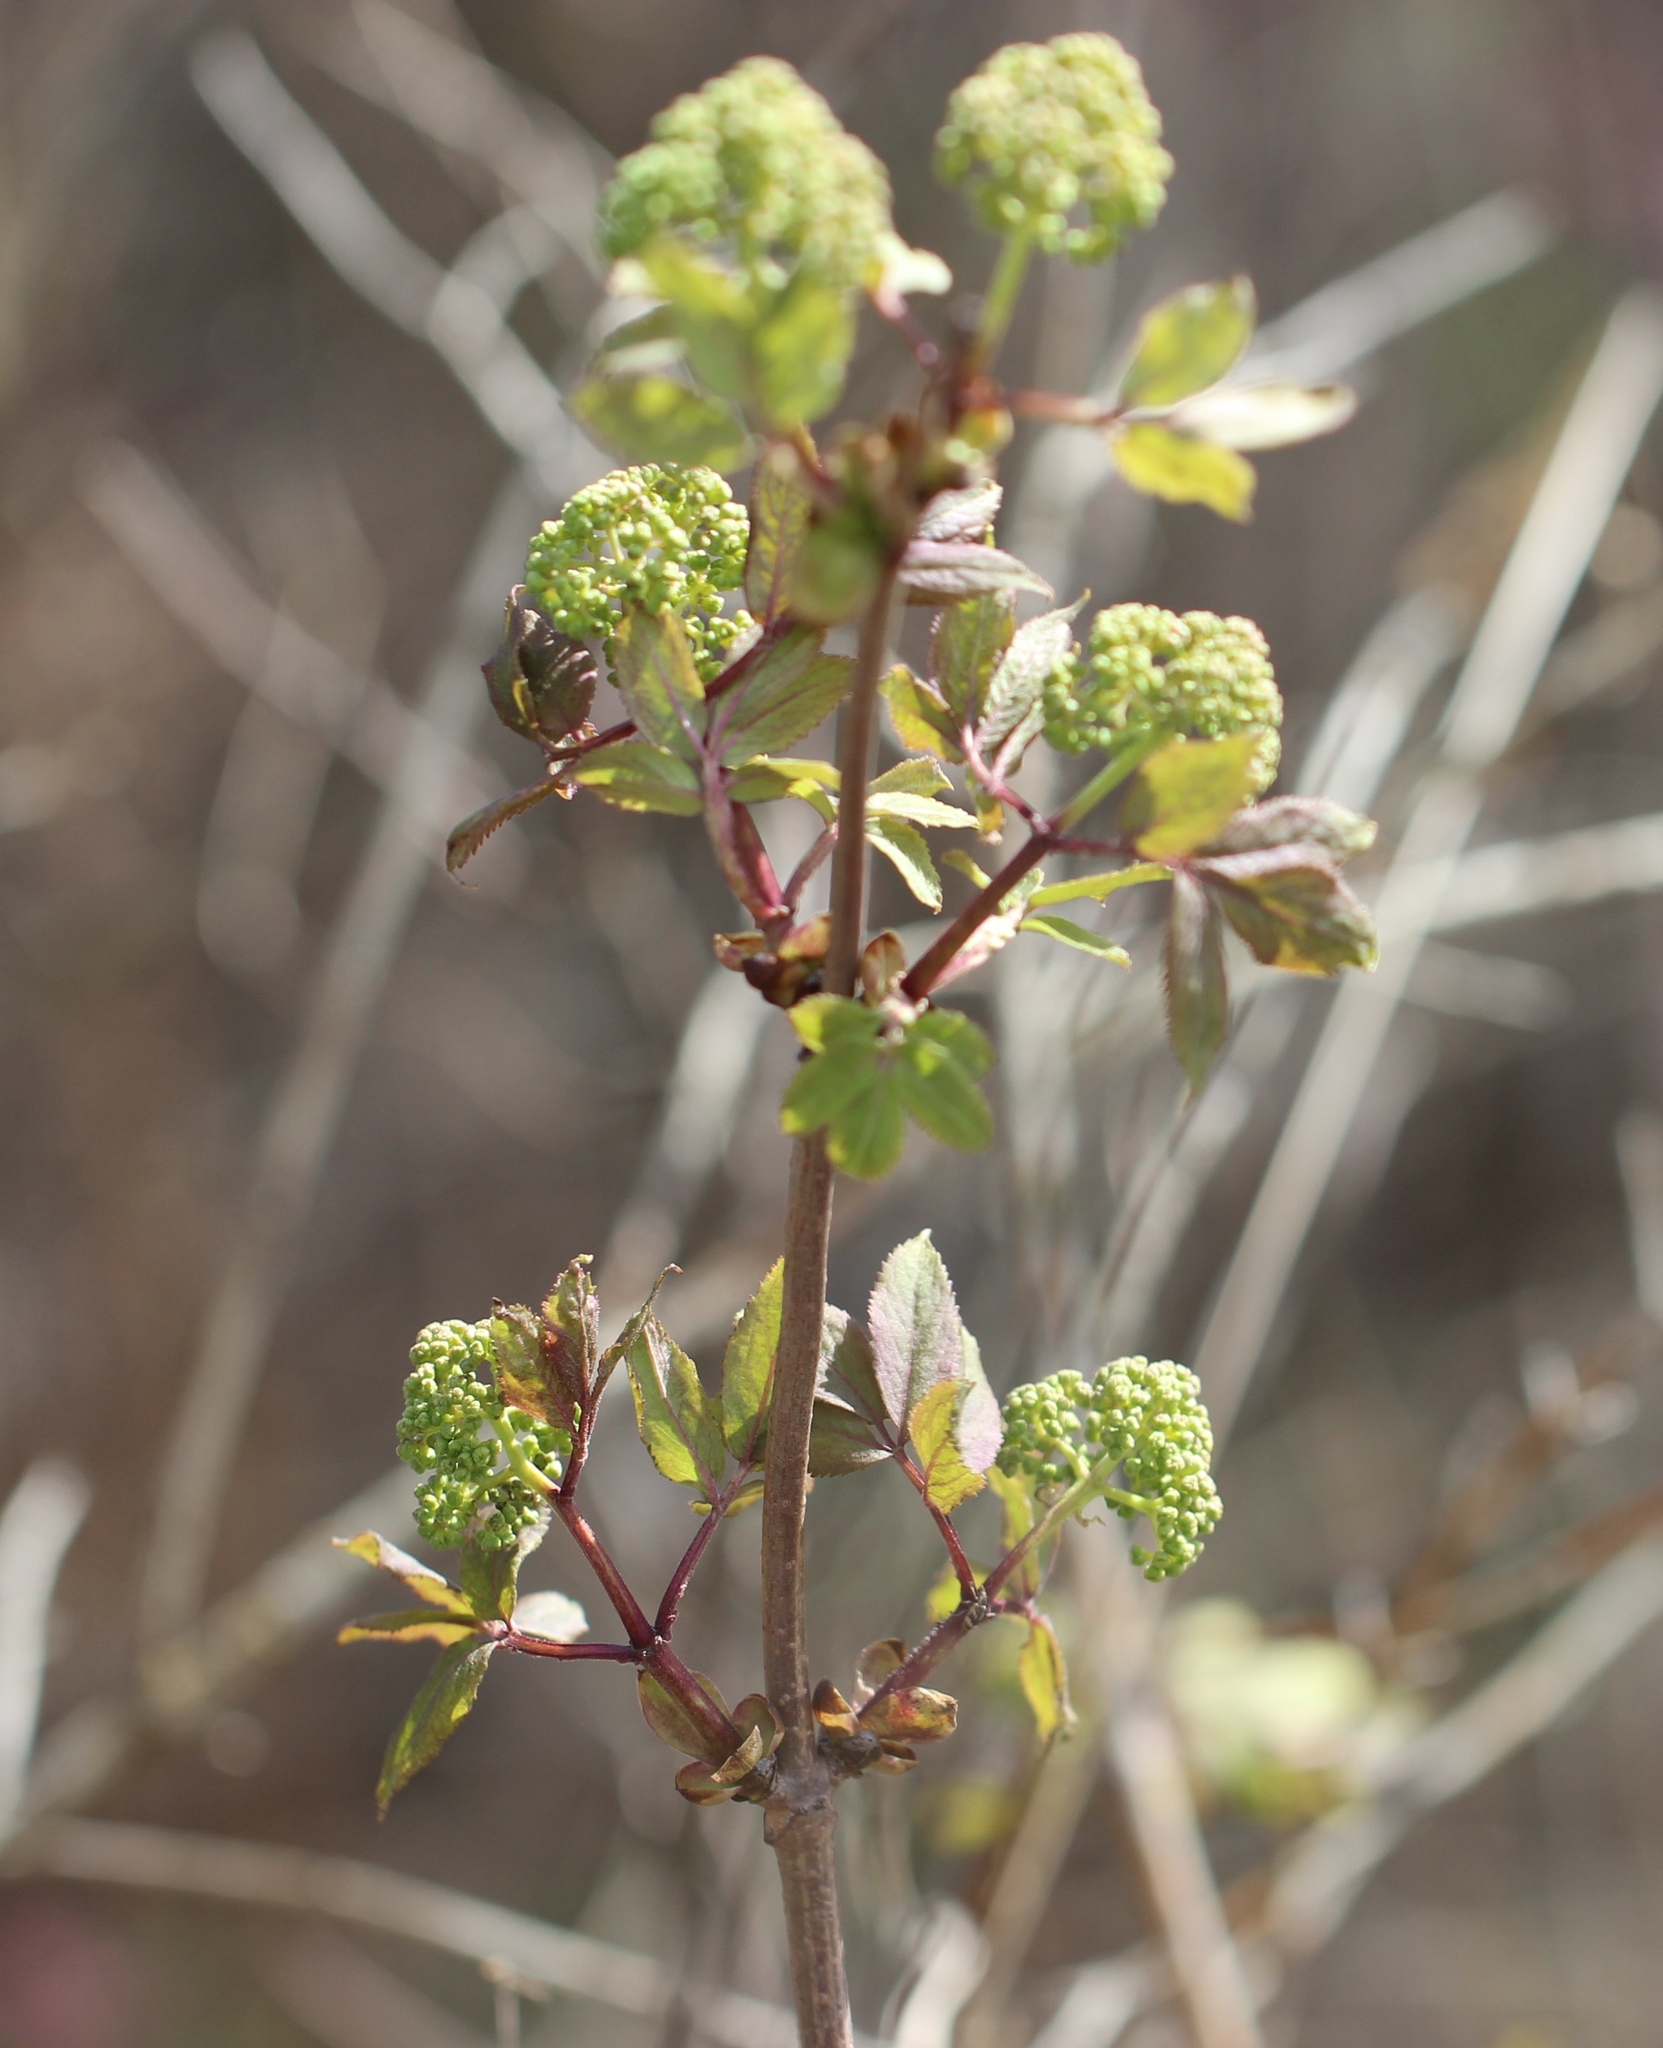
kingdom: Plantae
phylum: Tracheophyta
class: Magnoliopsida
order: Dipsacales
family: Viburnaceae
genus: Sambucus
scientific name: Sambucus racemosa
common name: Red-berried elder
